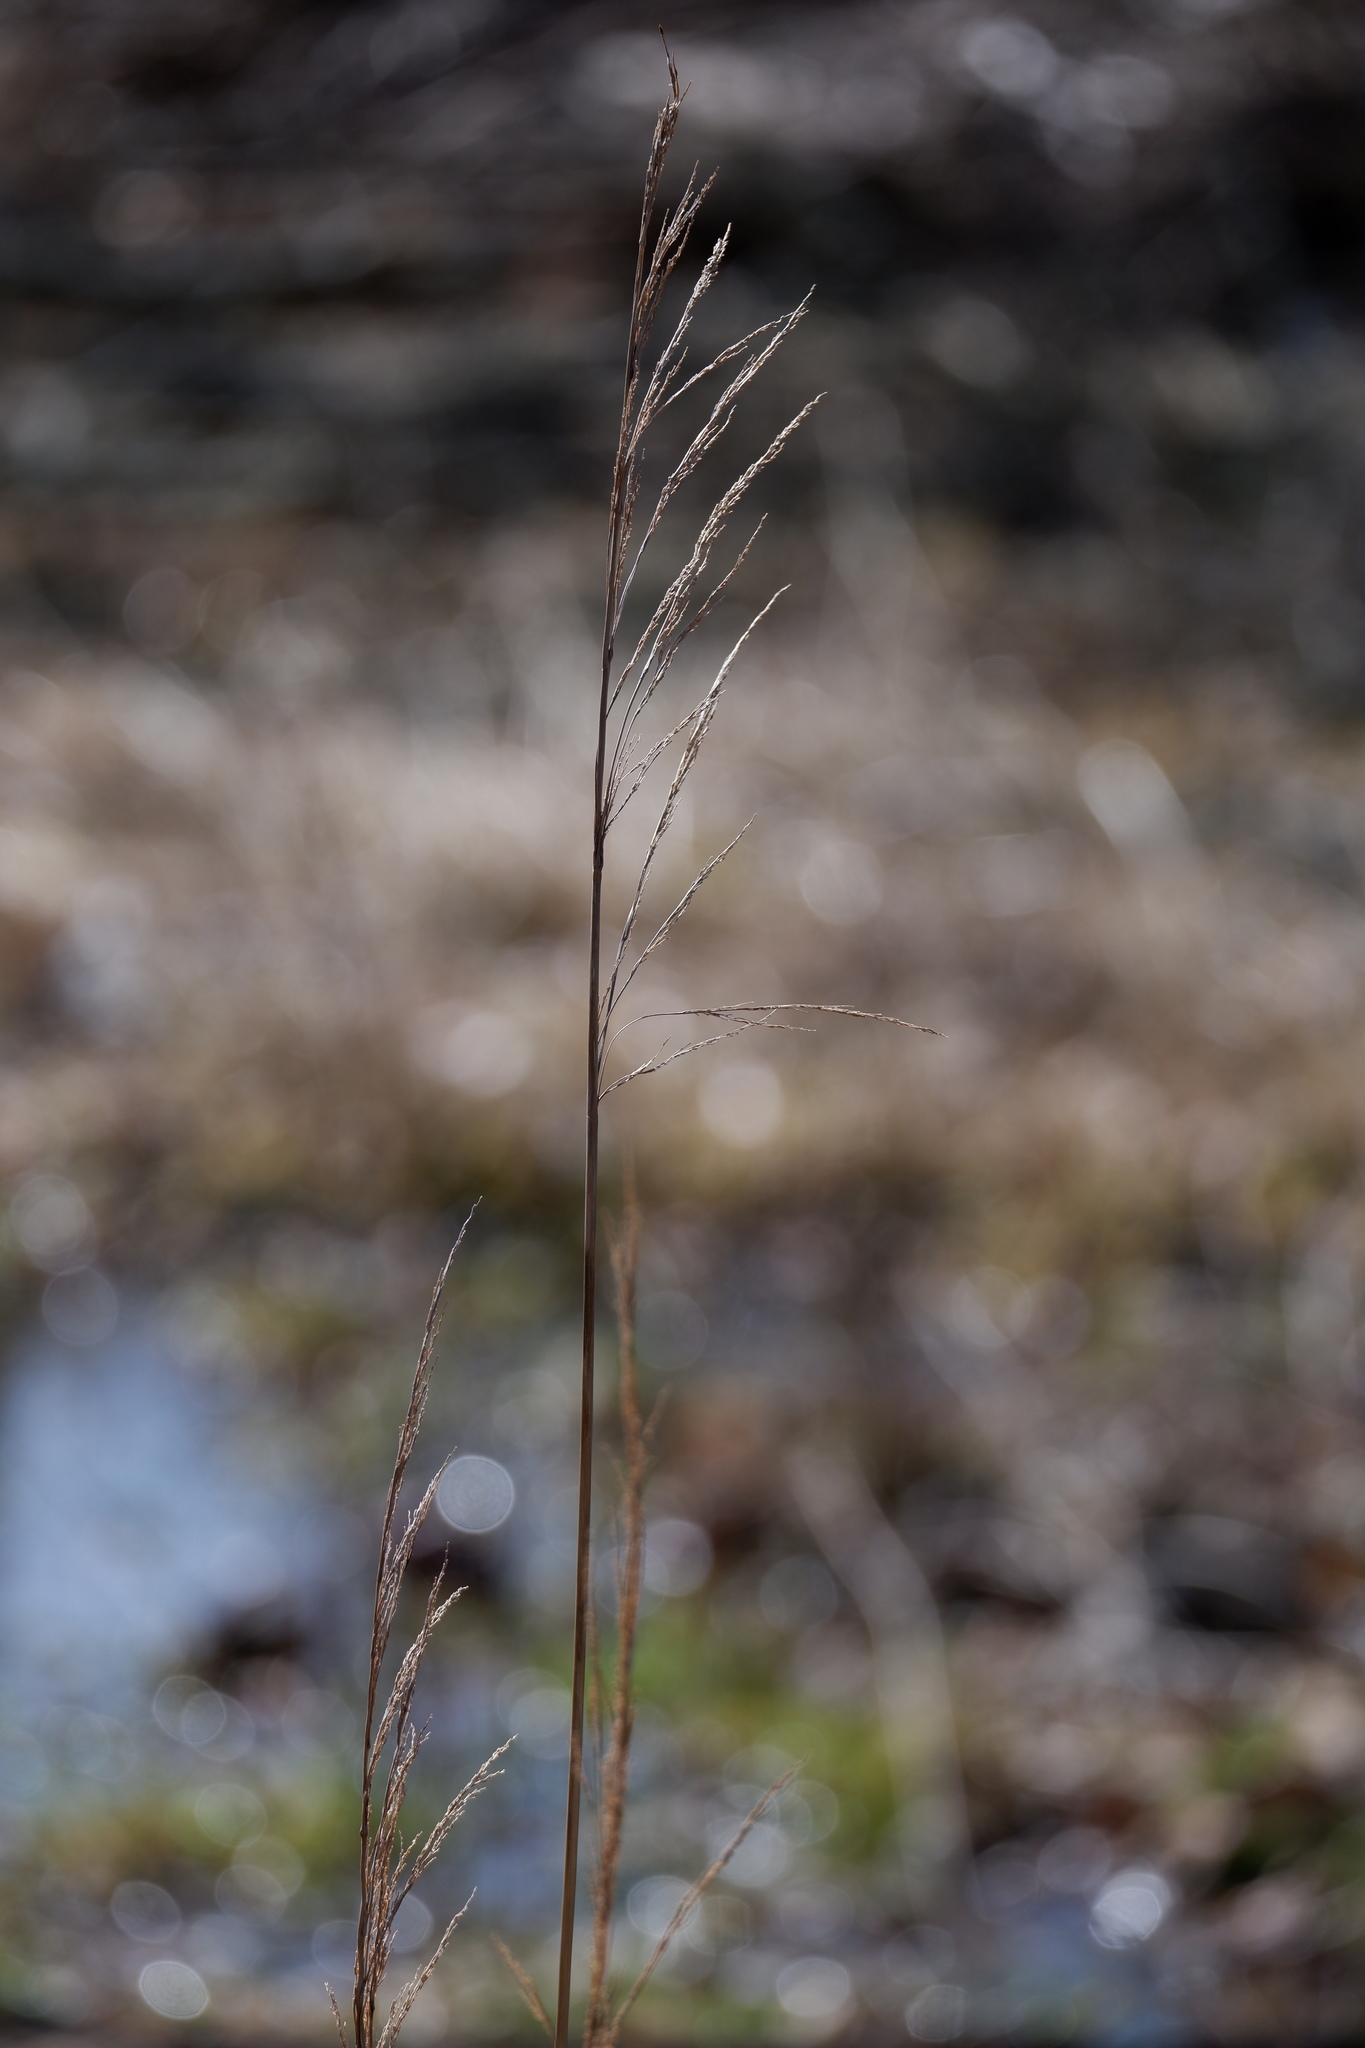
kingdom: Plantae
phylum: Tracheophyta
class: Liliopsida
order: Poales
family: Poaceae
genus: Cinna
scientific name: Cinna arundinacea
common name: Stout woodreed
